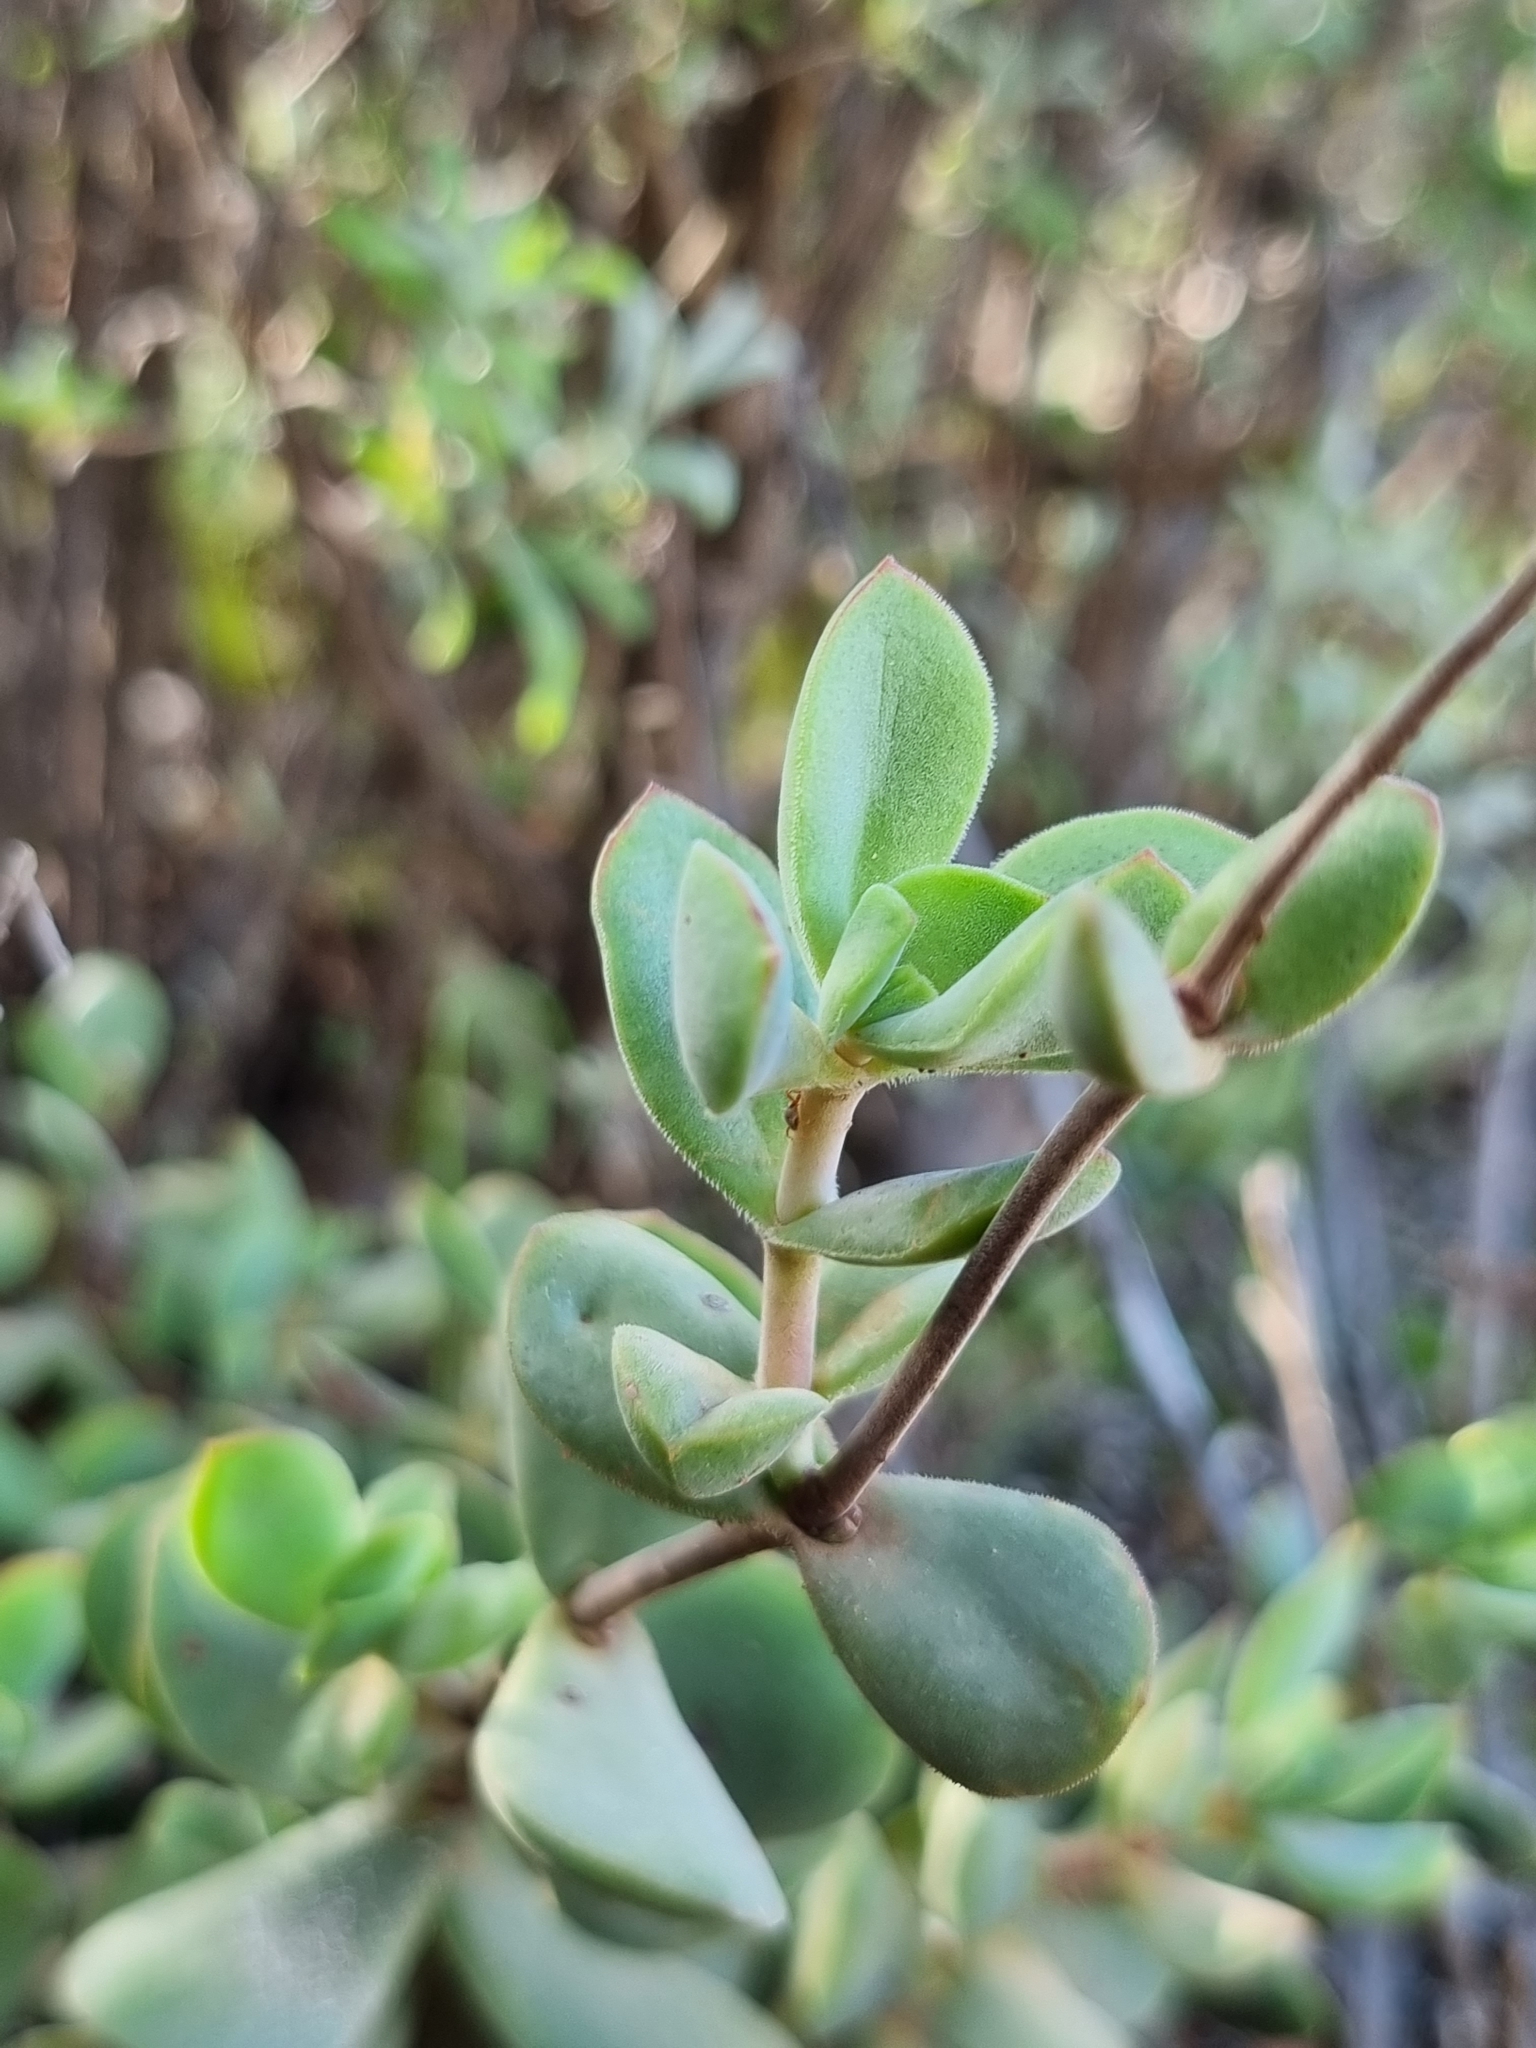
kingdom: Plantae
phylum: Tracheophyta
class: Magnoliopsida
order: Saxifragales
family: Crassulaceae
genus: Crassula
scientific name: Crassula atropurpurea
